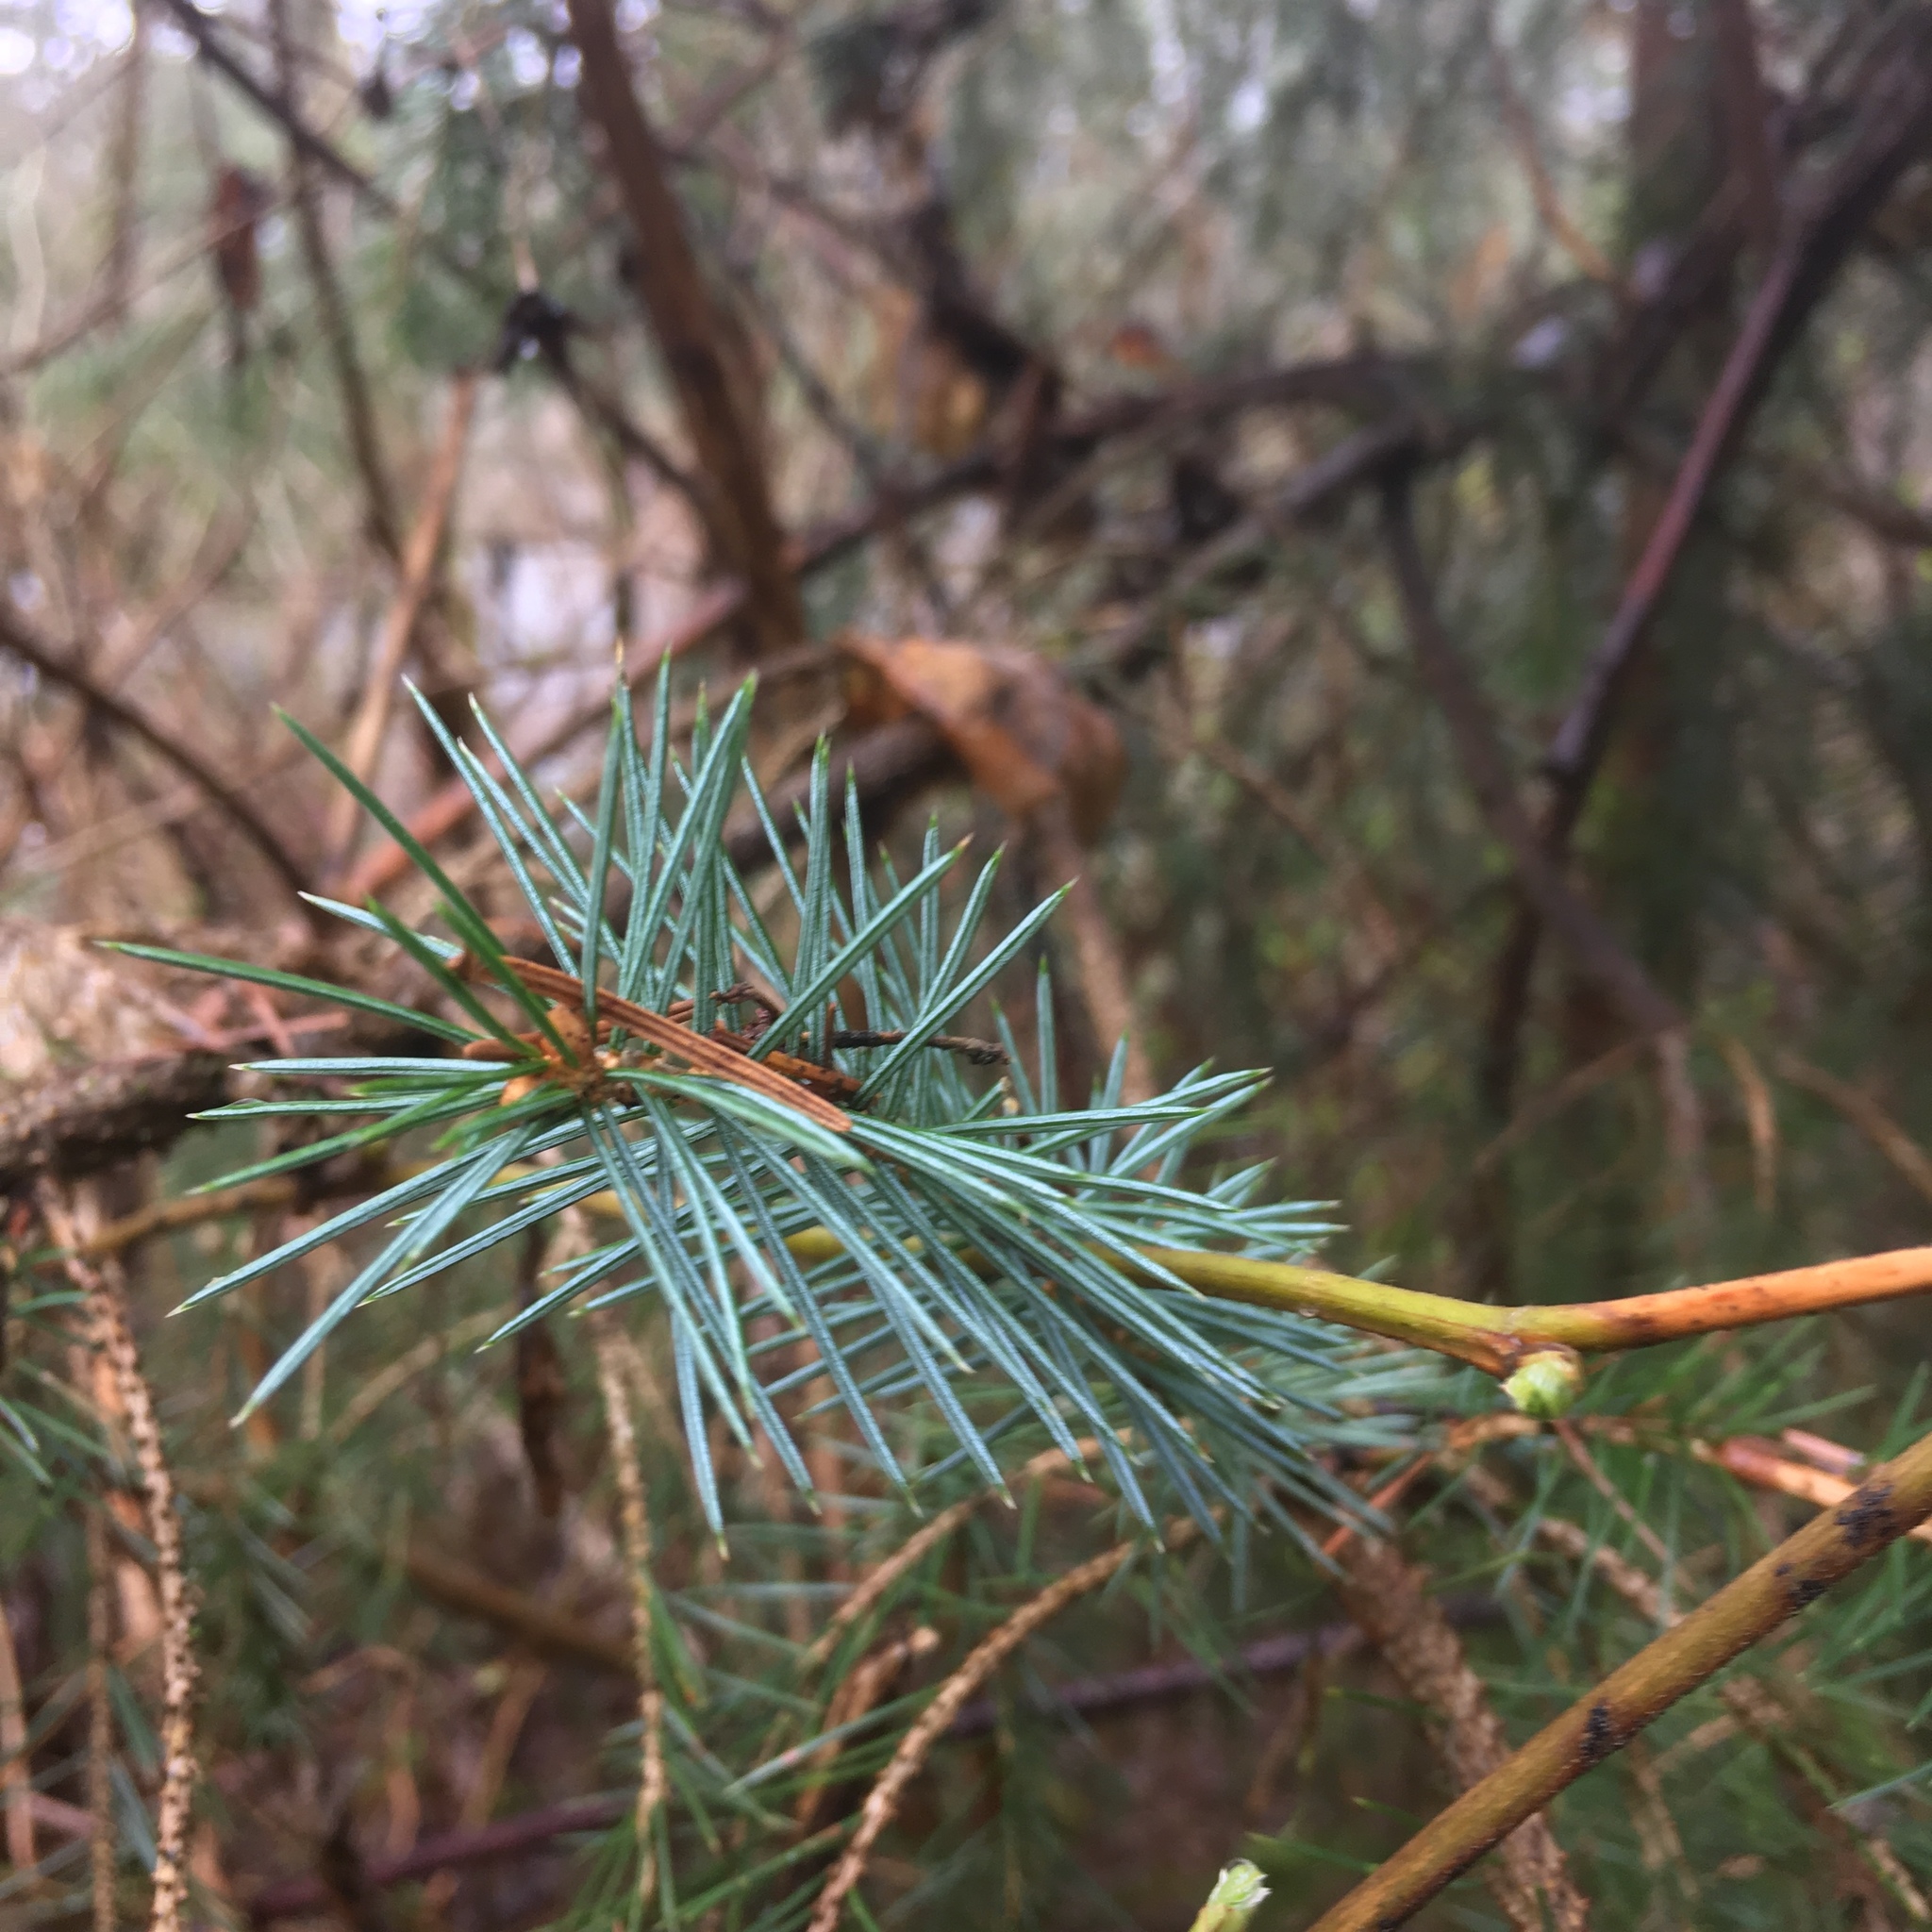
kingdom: Plantae
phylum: Tracheophyta
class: Pinopsida
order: Pinales
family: Pinaceae
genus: Picea
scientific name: Picea sitchensis
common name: Sitka spruce
